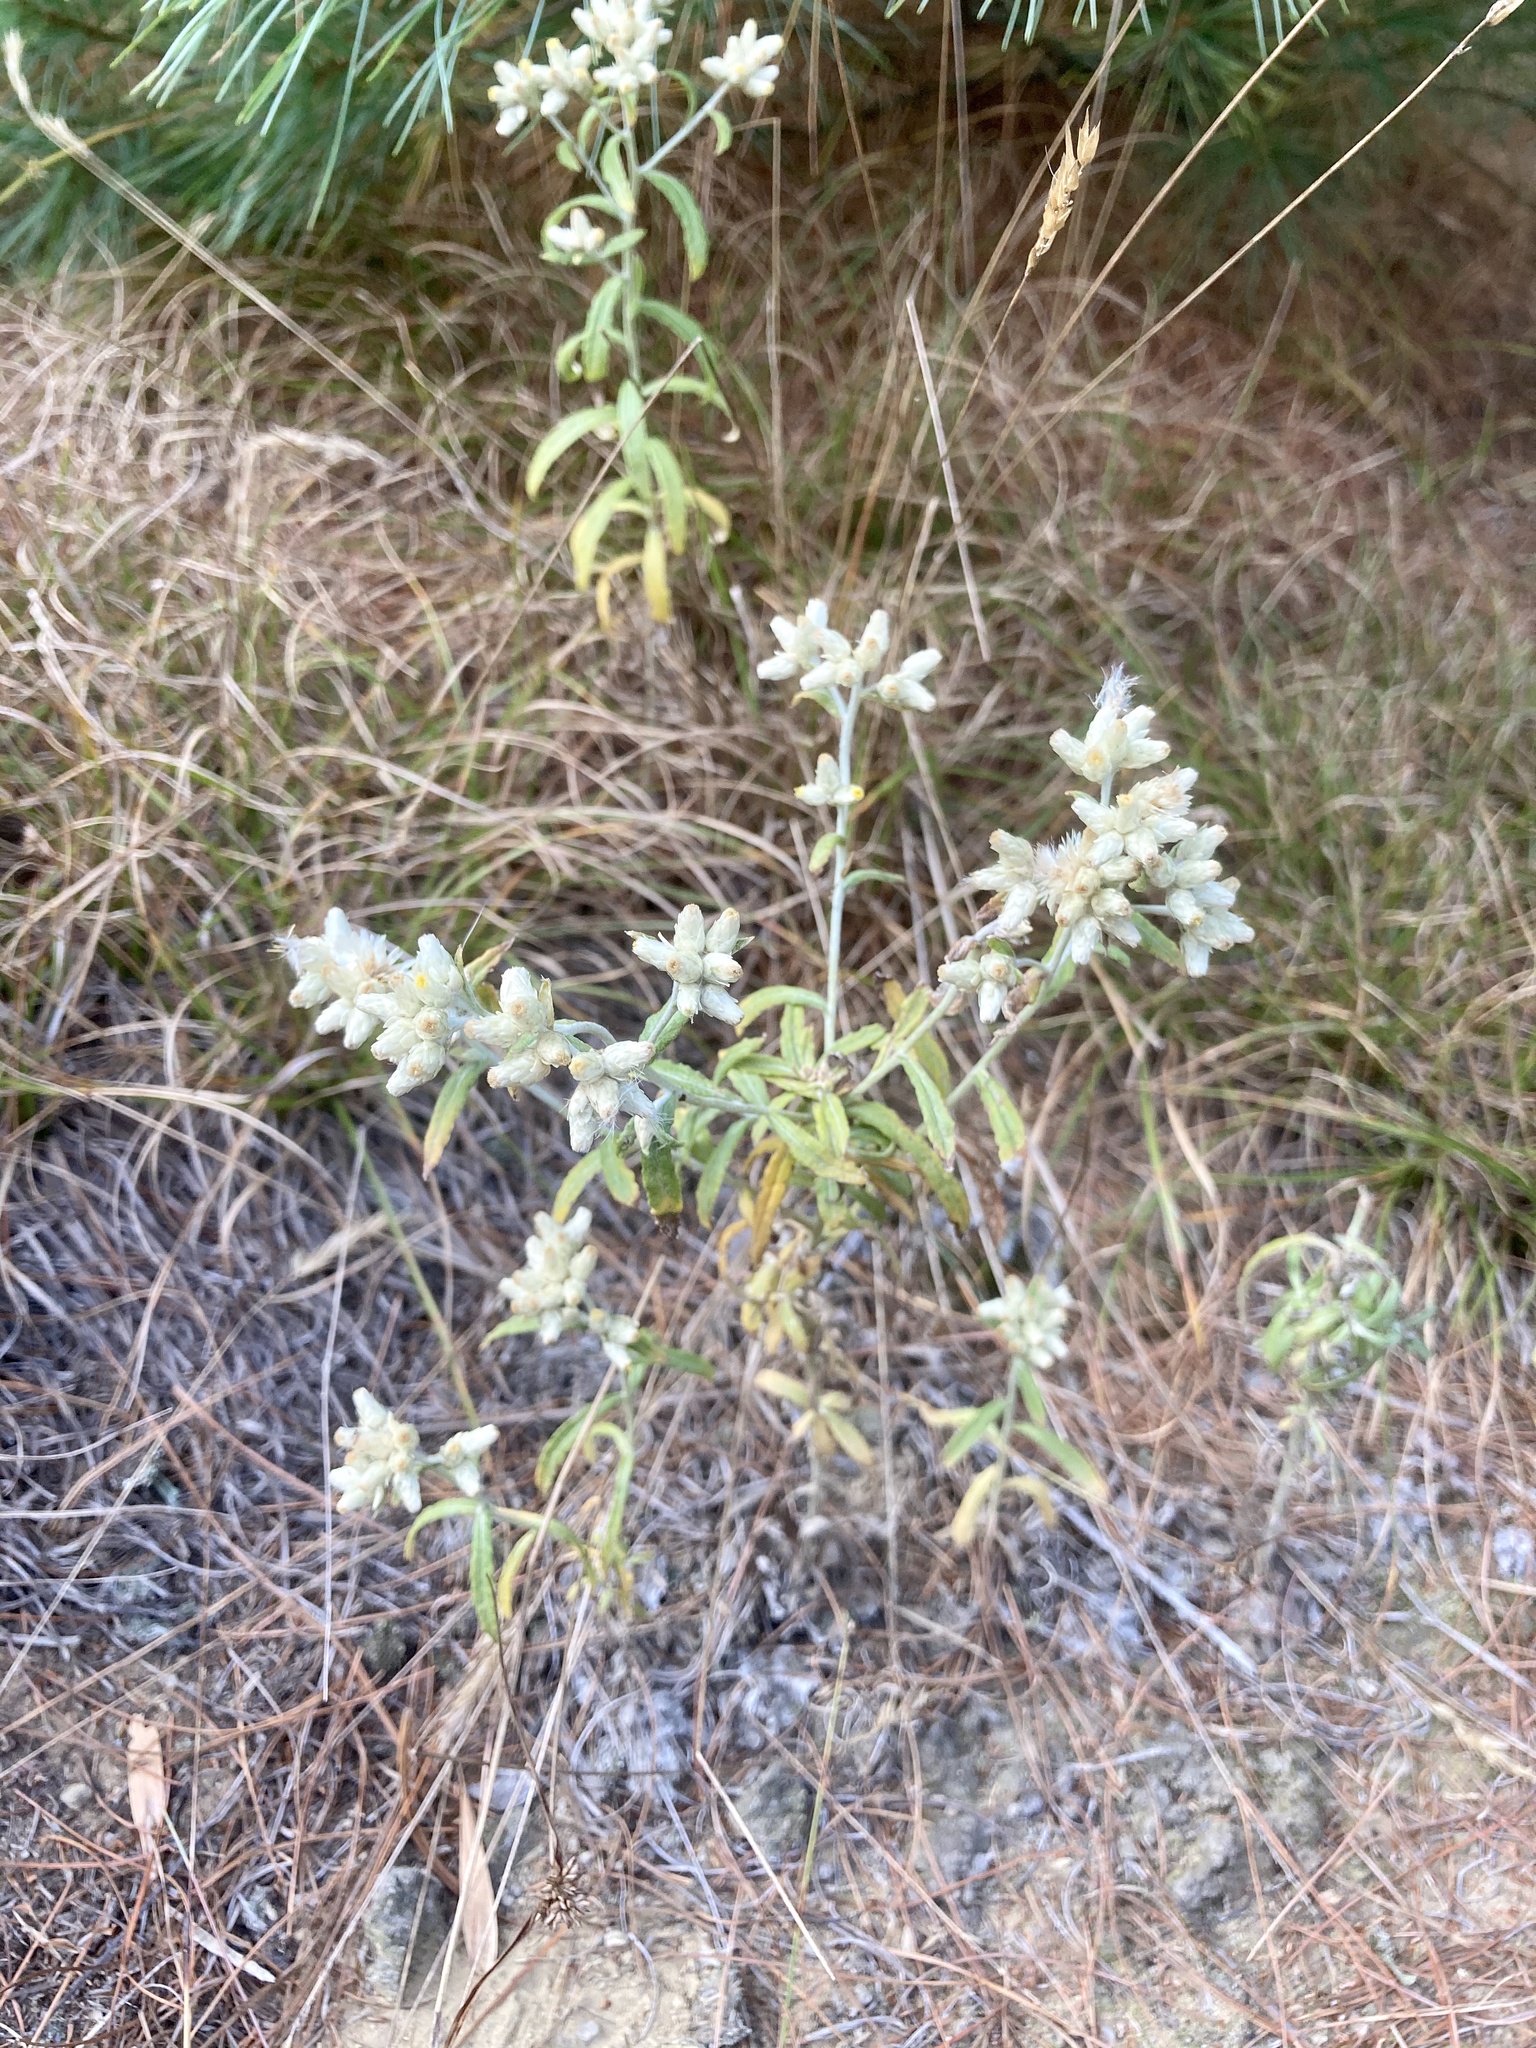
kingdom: Plantae
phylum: Tracheophyta
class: Magnoliopsida
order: Asterales
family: Asteraceae
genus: Pseudognaphalium
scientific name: Pseudognaphalium obtusifolium
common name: Eastern rabbit-tobacco
